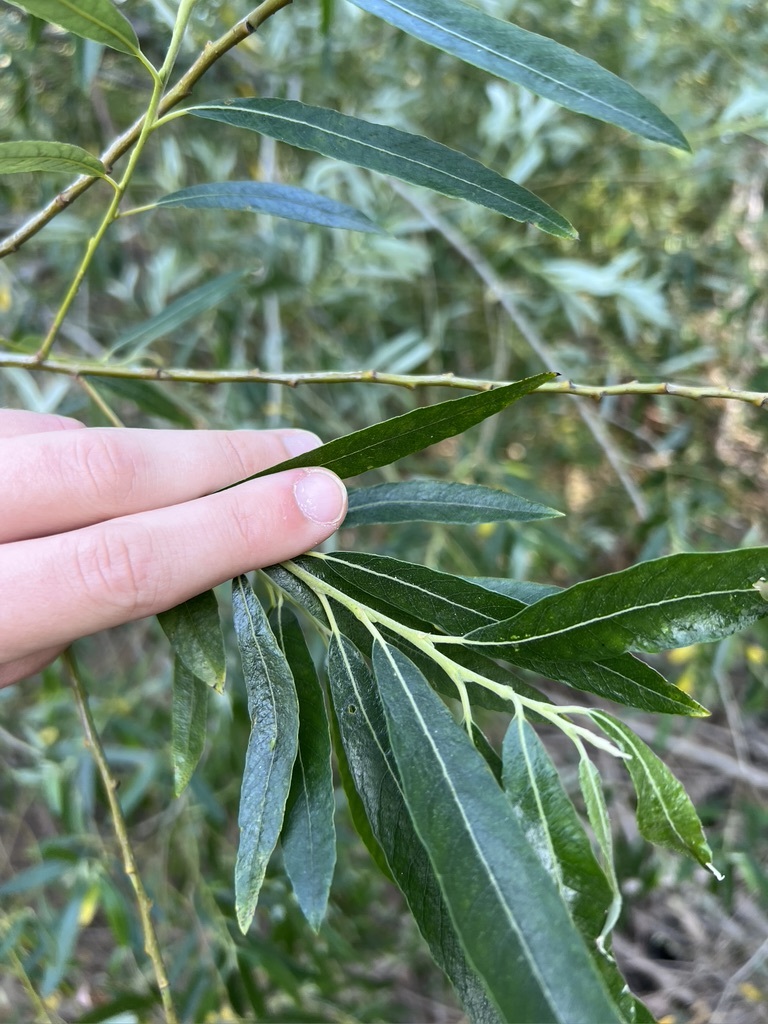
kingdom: Plantae
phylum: Tracheophyta
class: Magnoliopsida
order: Malpighiales
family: Salicaceae
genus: Salix
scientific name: Salix lasiolepis
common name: Arroyo willow
